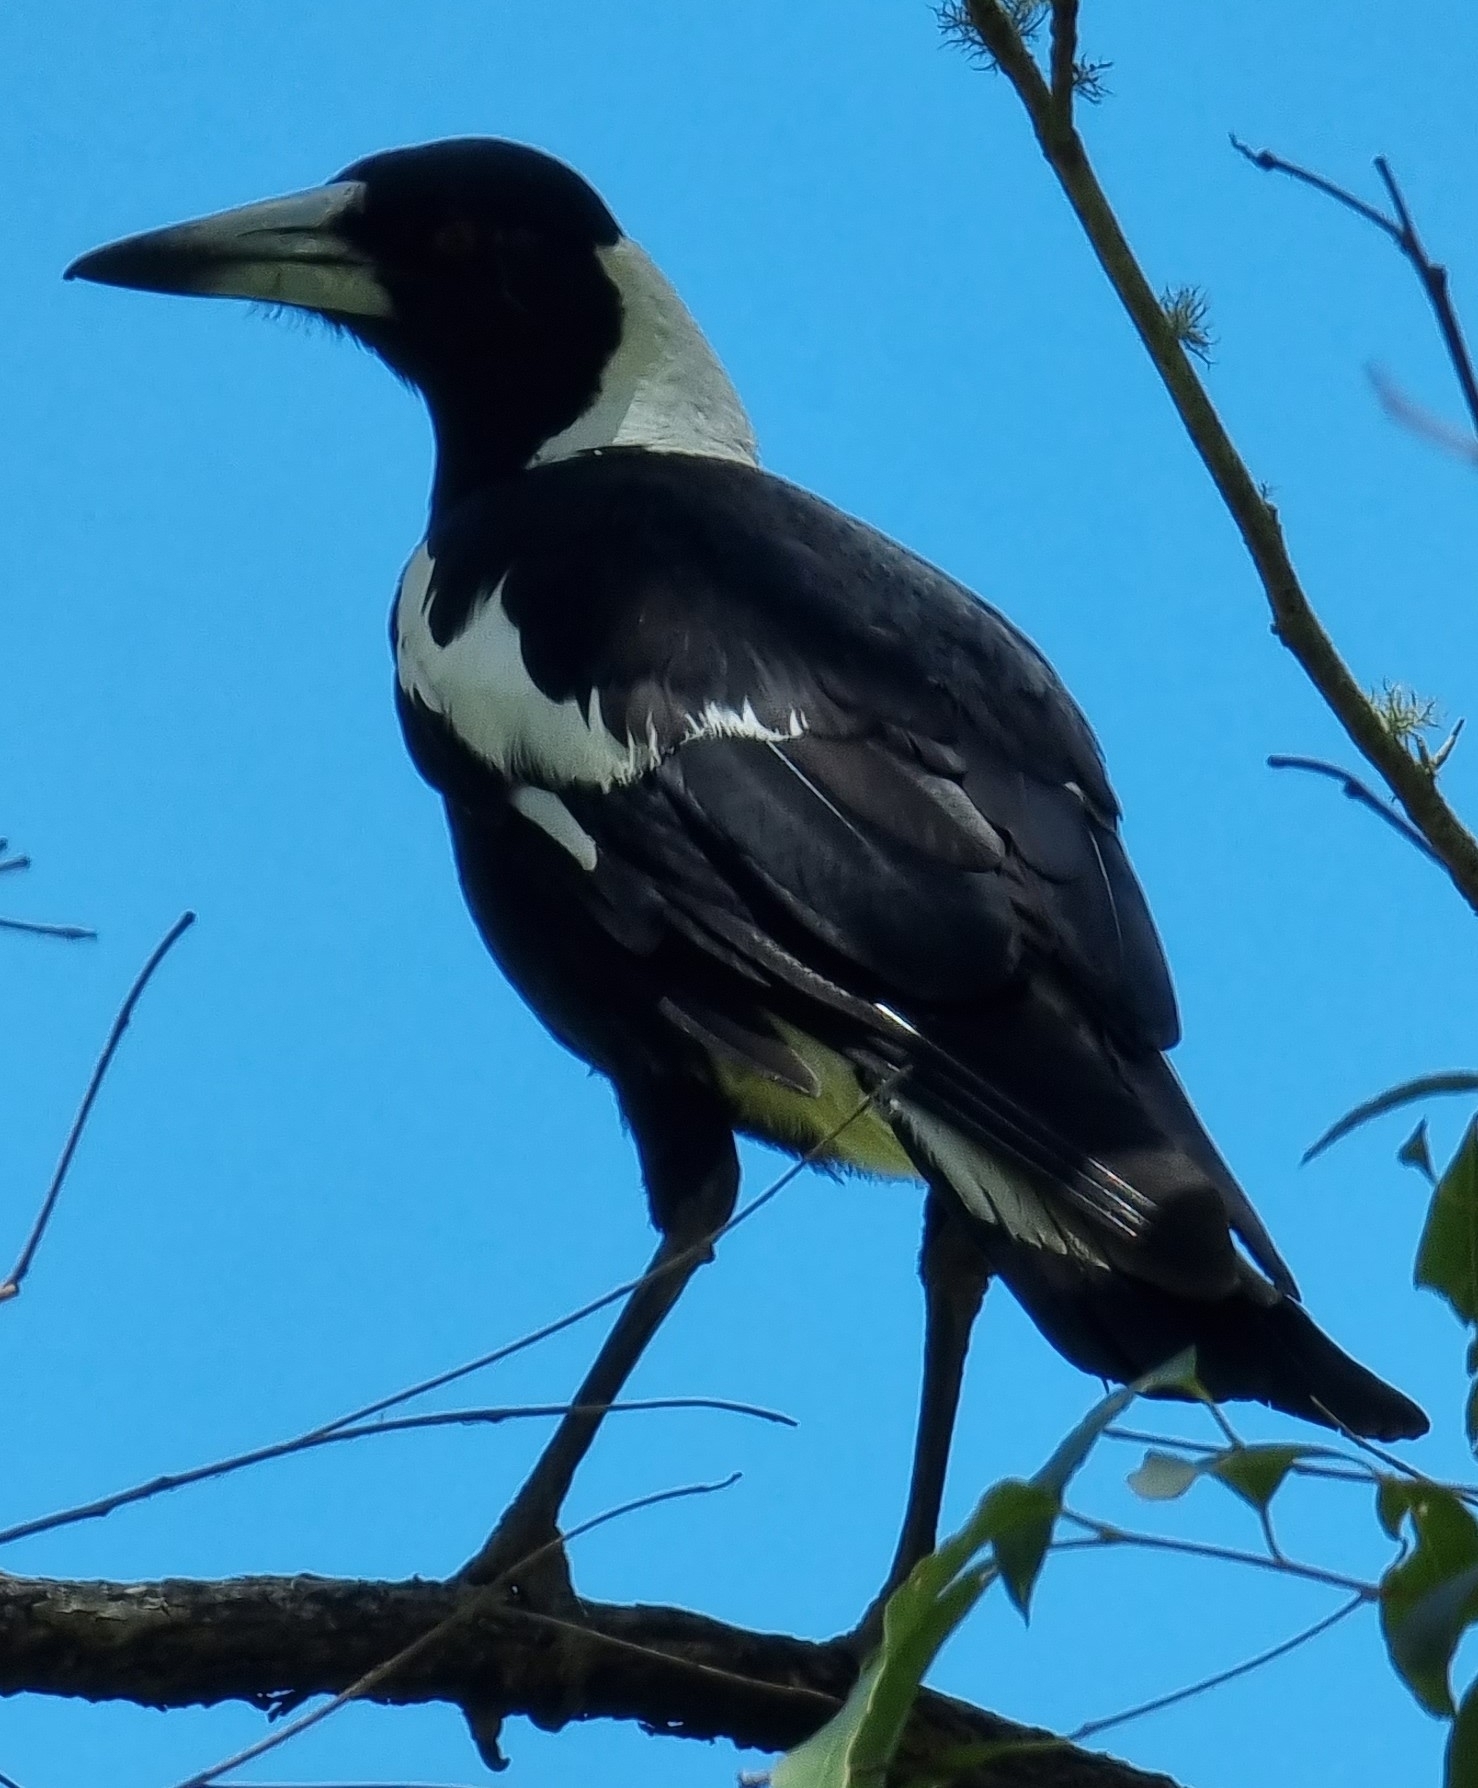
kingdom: Animalia
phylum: Chordata
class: Aves
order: Passeriformes
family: Cracticidae
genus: Gymnorhina
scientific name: Gymnorhina tibicen
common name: Australian magpie
